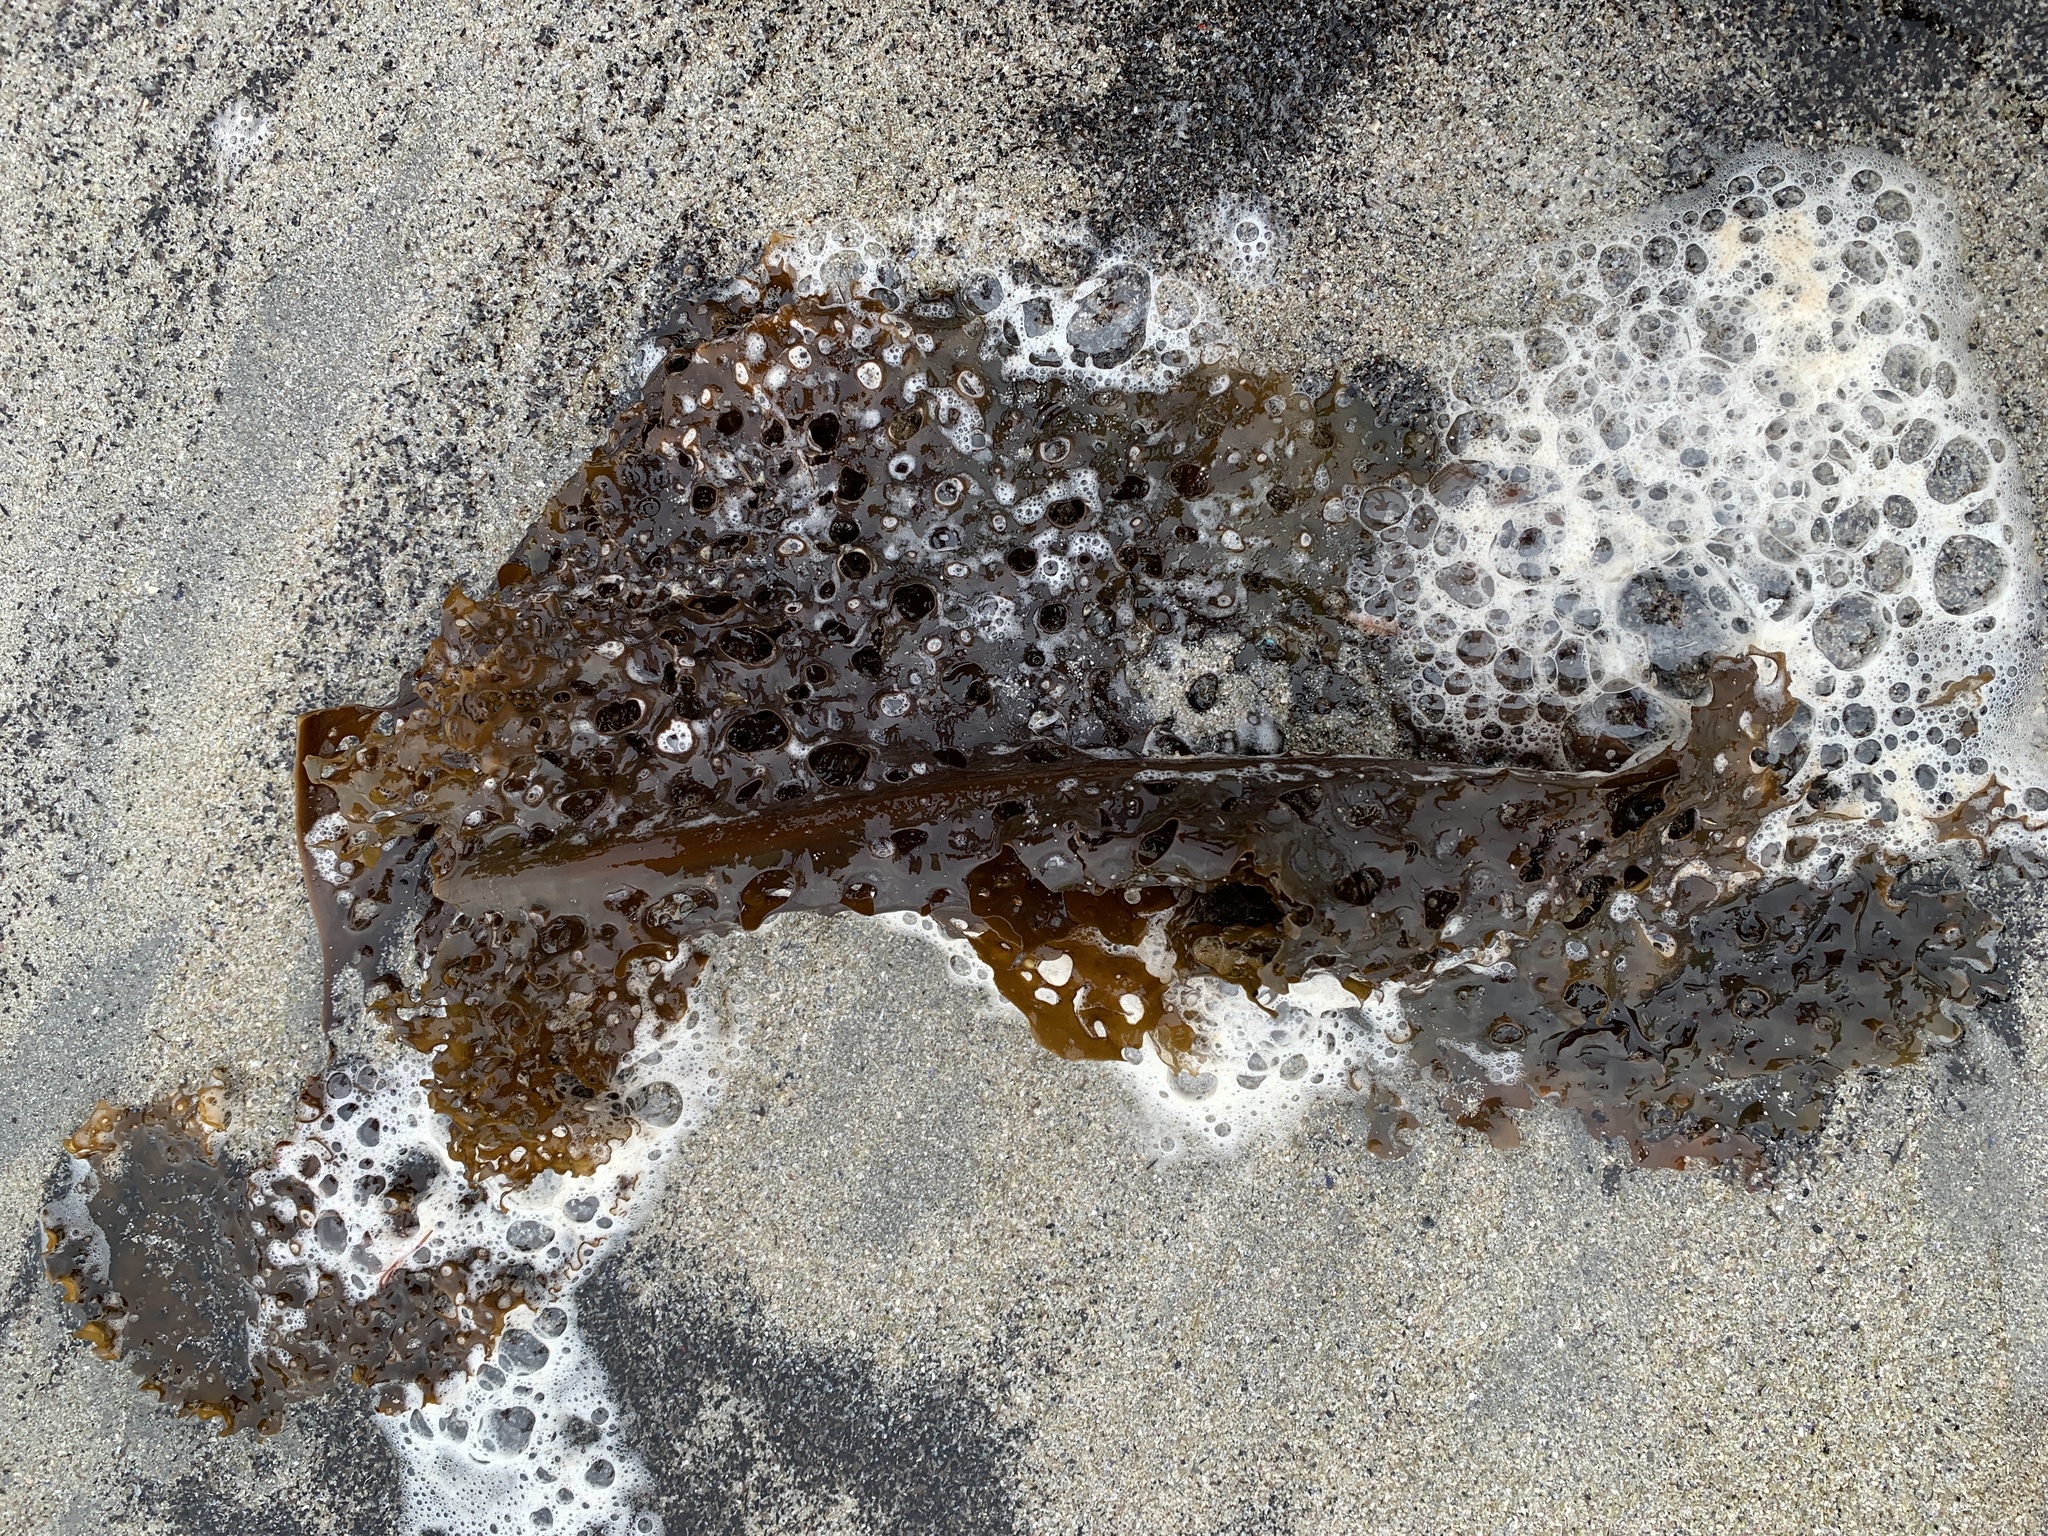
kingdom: Chromista
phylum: Ochrophyta
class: Phaeophyceae
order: Laminariales
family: Costariaceae
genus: Agarum
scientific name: Agarum clathratum
